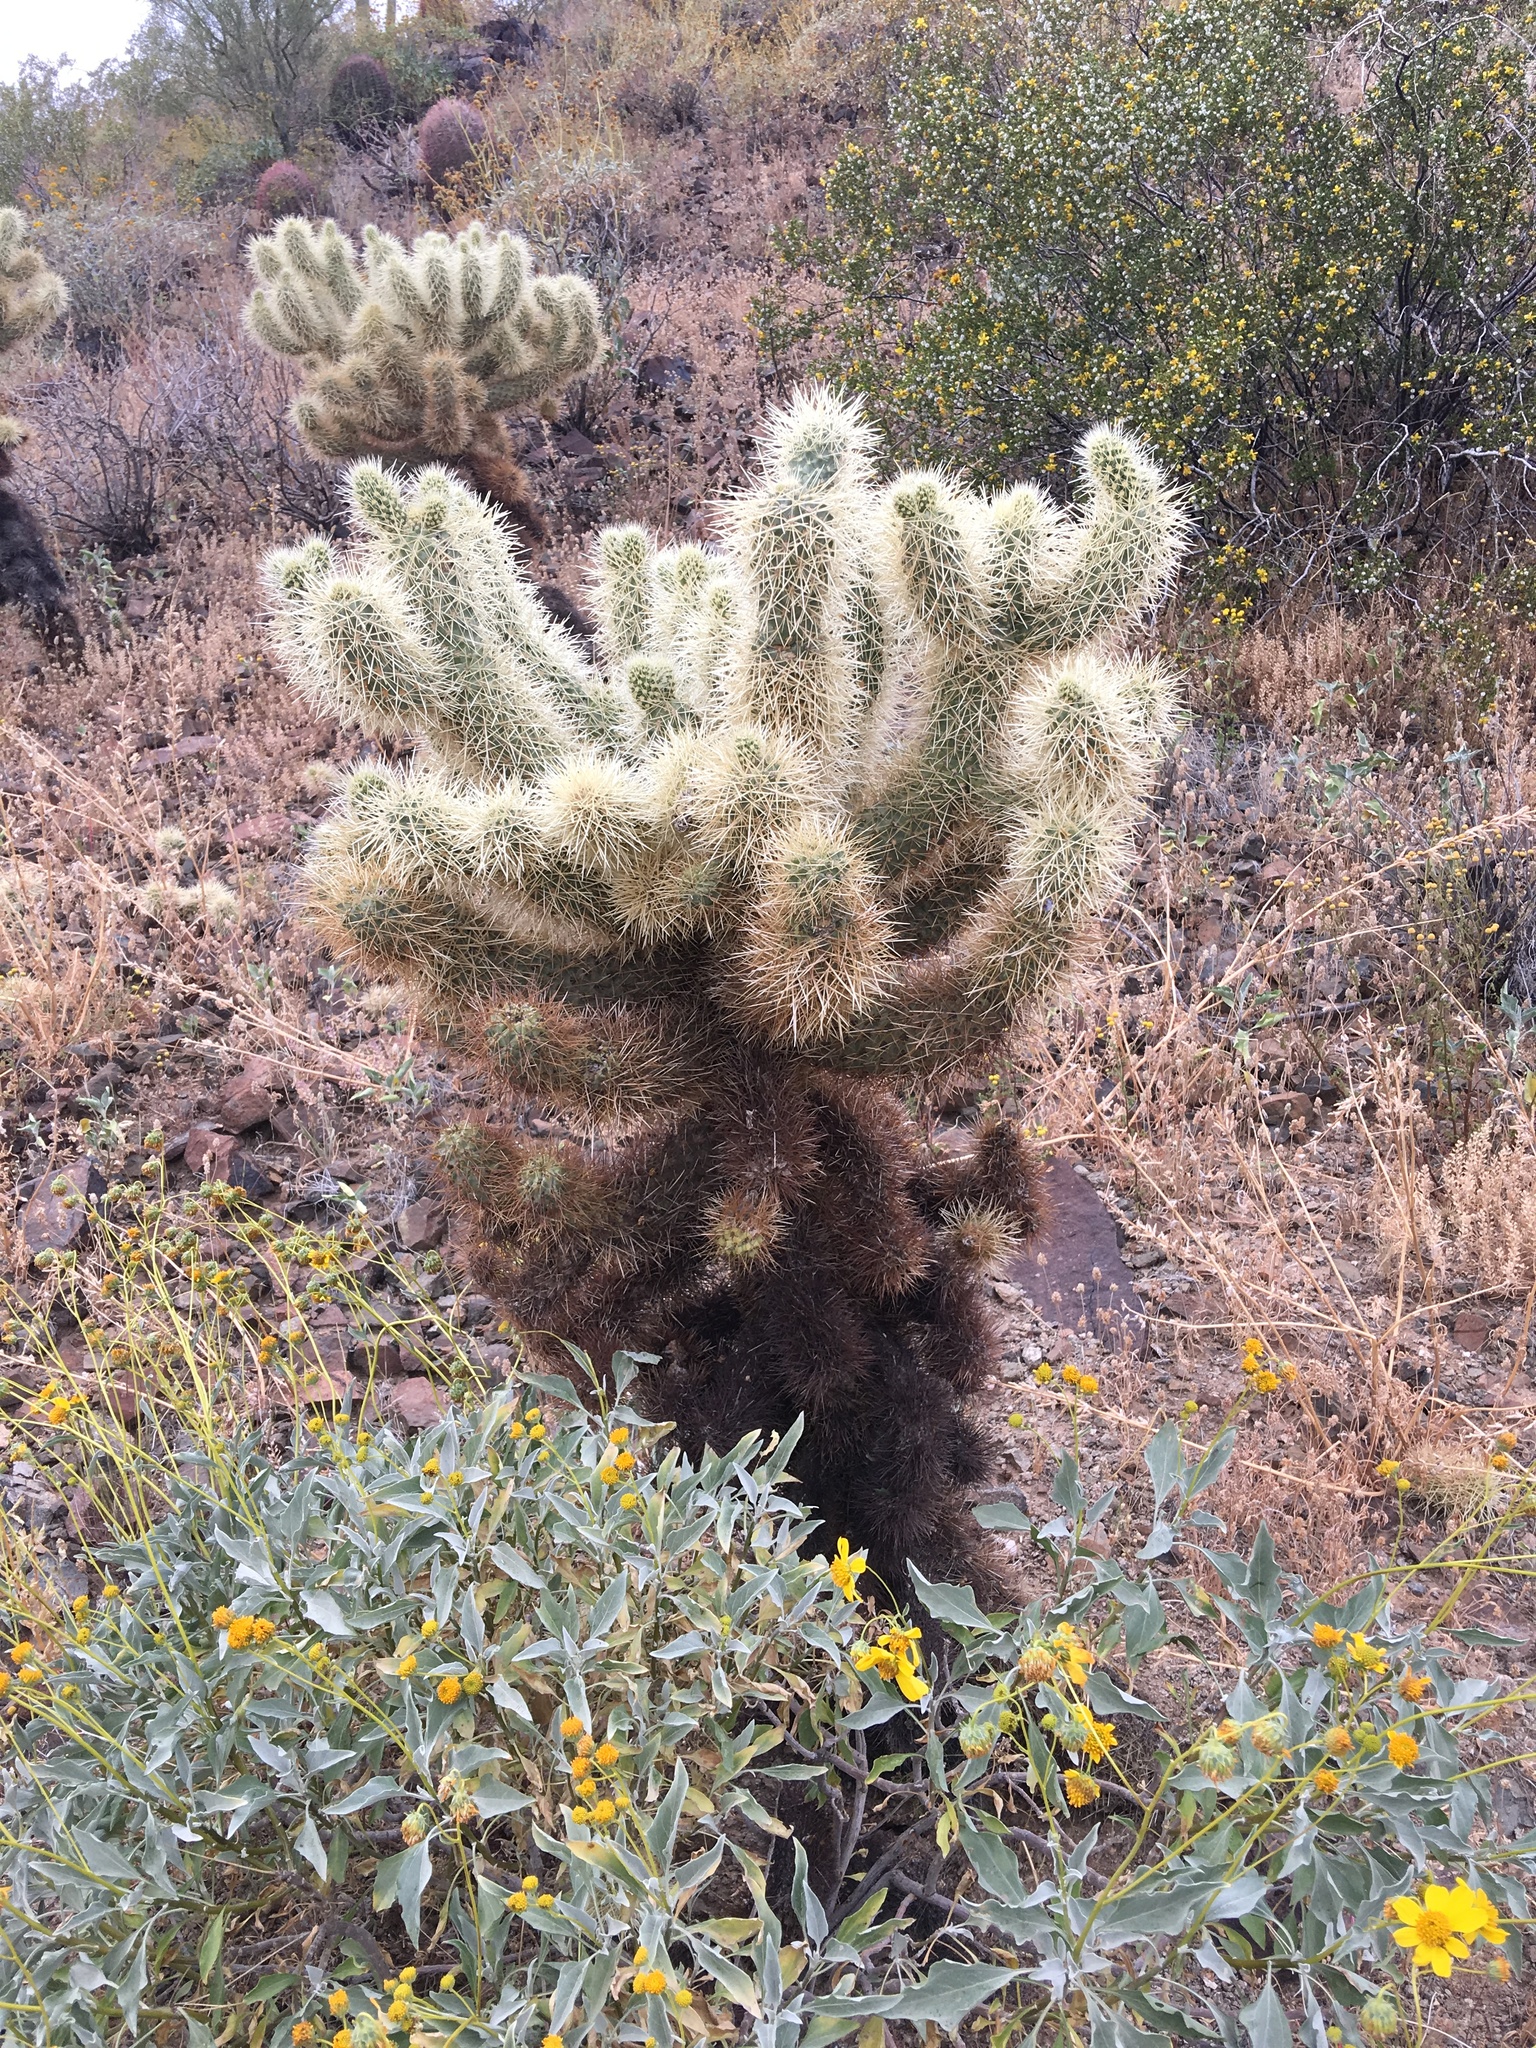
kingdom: Plantae
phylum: Tracheophyta
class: Magnoliopsida
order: Caryophyllales
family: Cactaceae
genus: Cylindropuntia
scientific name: Cylindropuntia fosbergii
